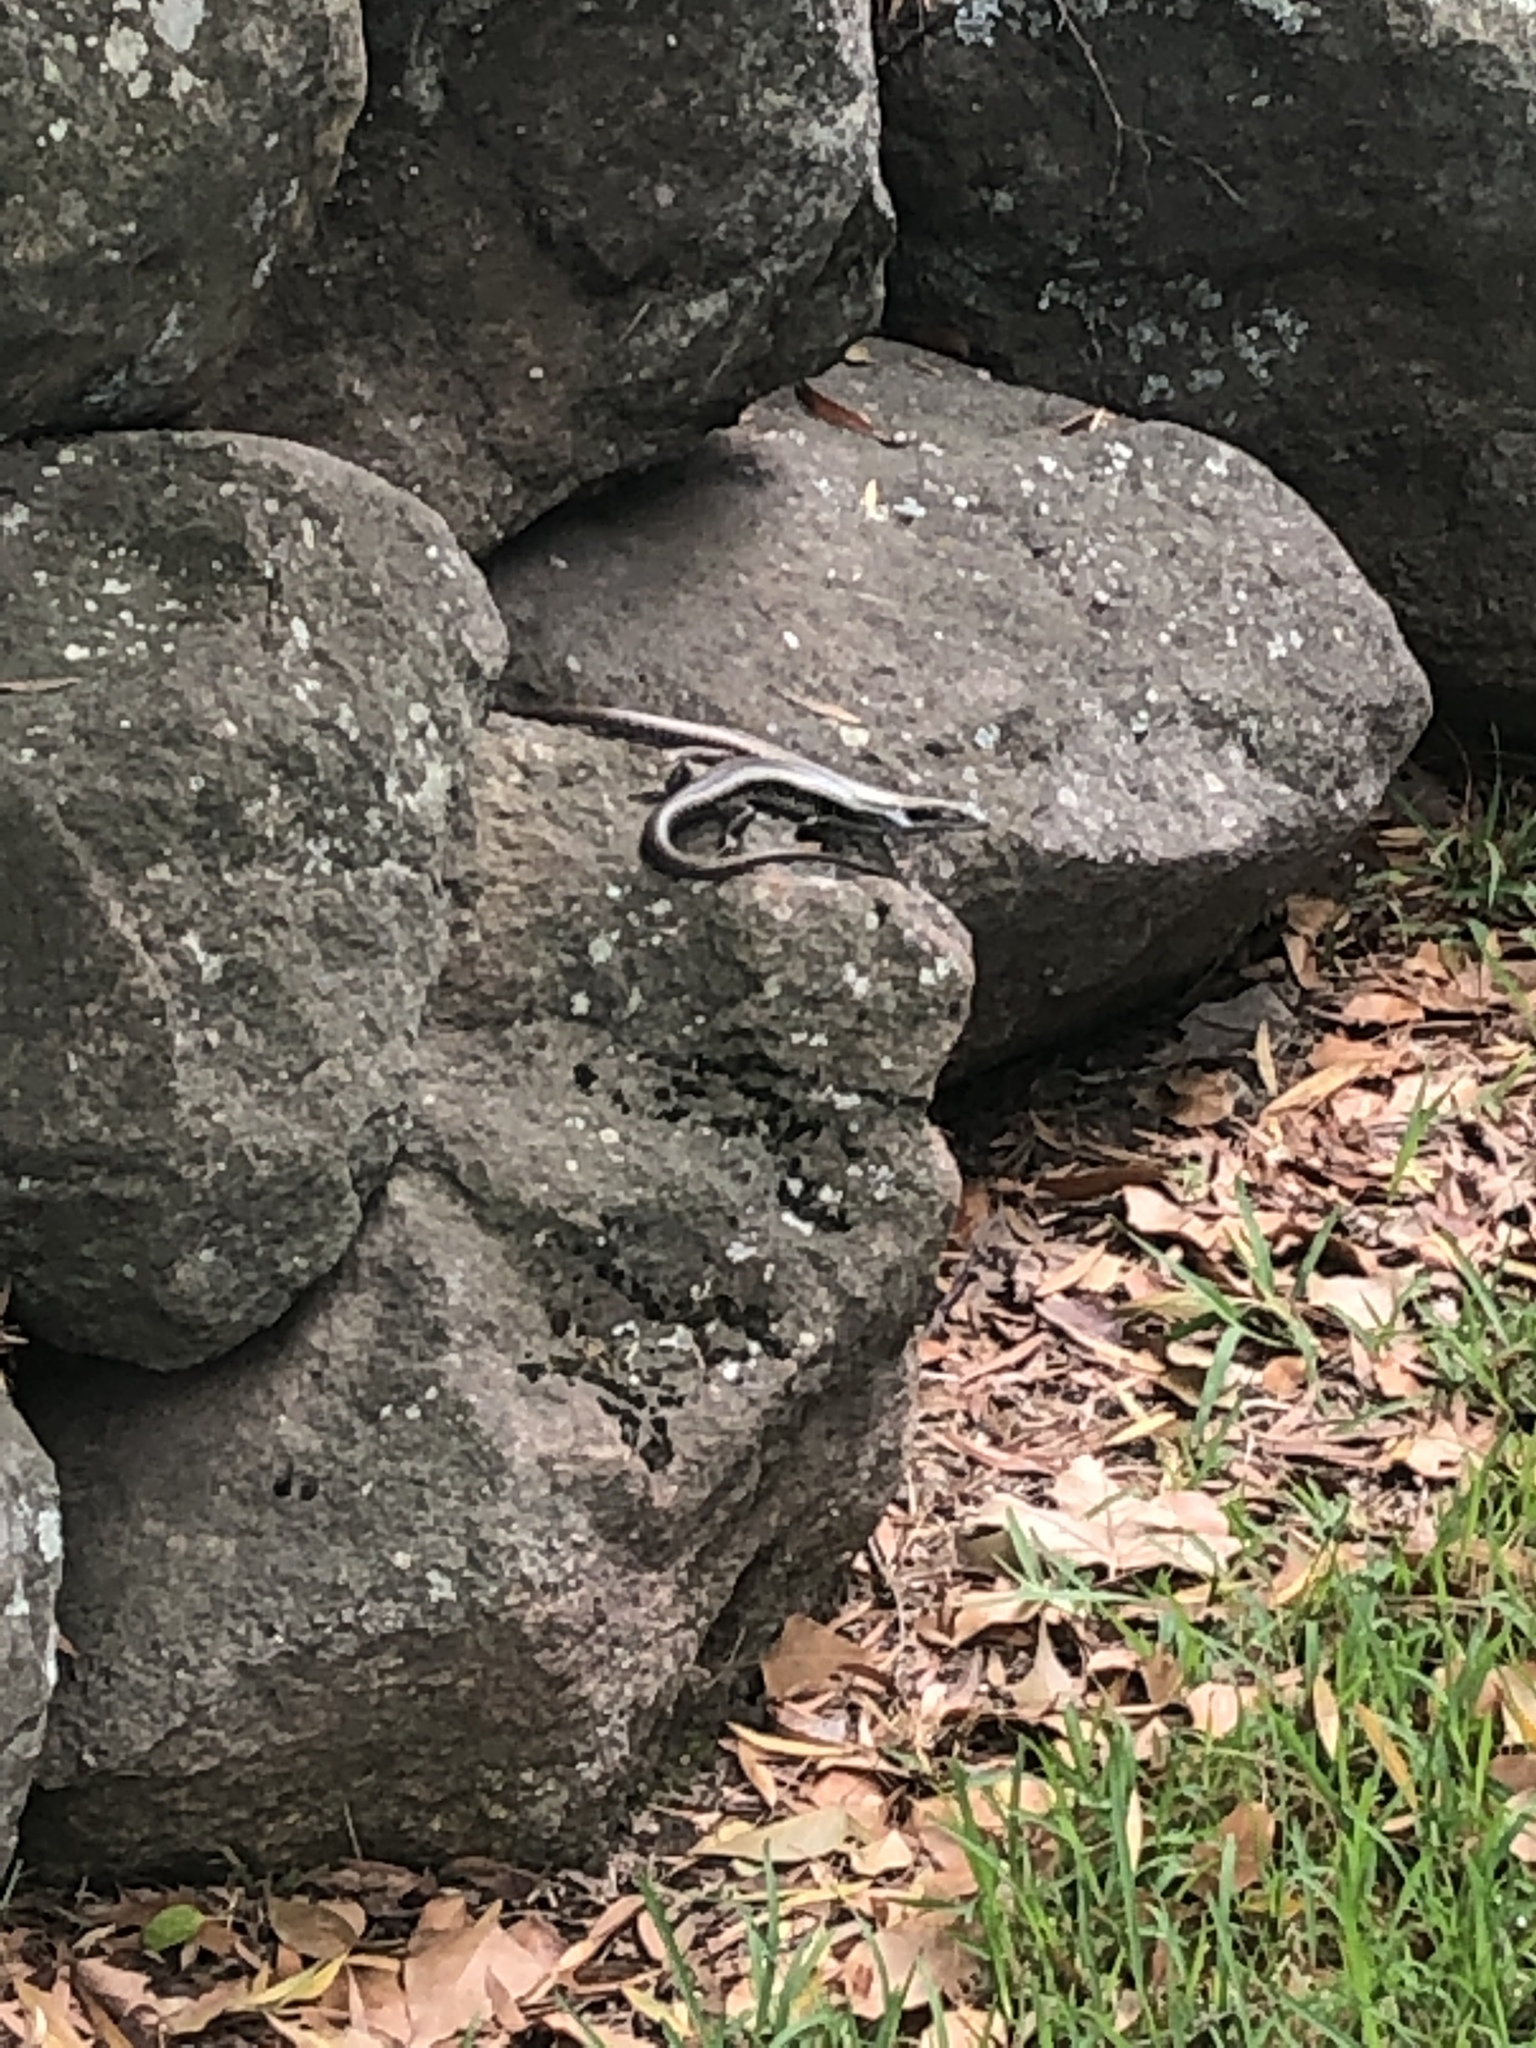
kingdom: Animalia
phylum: Chordata
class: Squamata
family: Scincidae
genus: Eulamprus
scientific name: Eulamprus quoyii
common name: Eastern water skink
